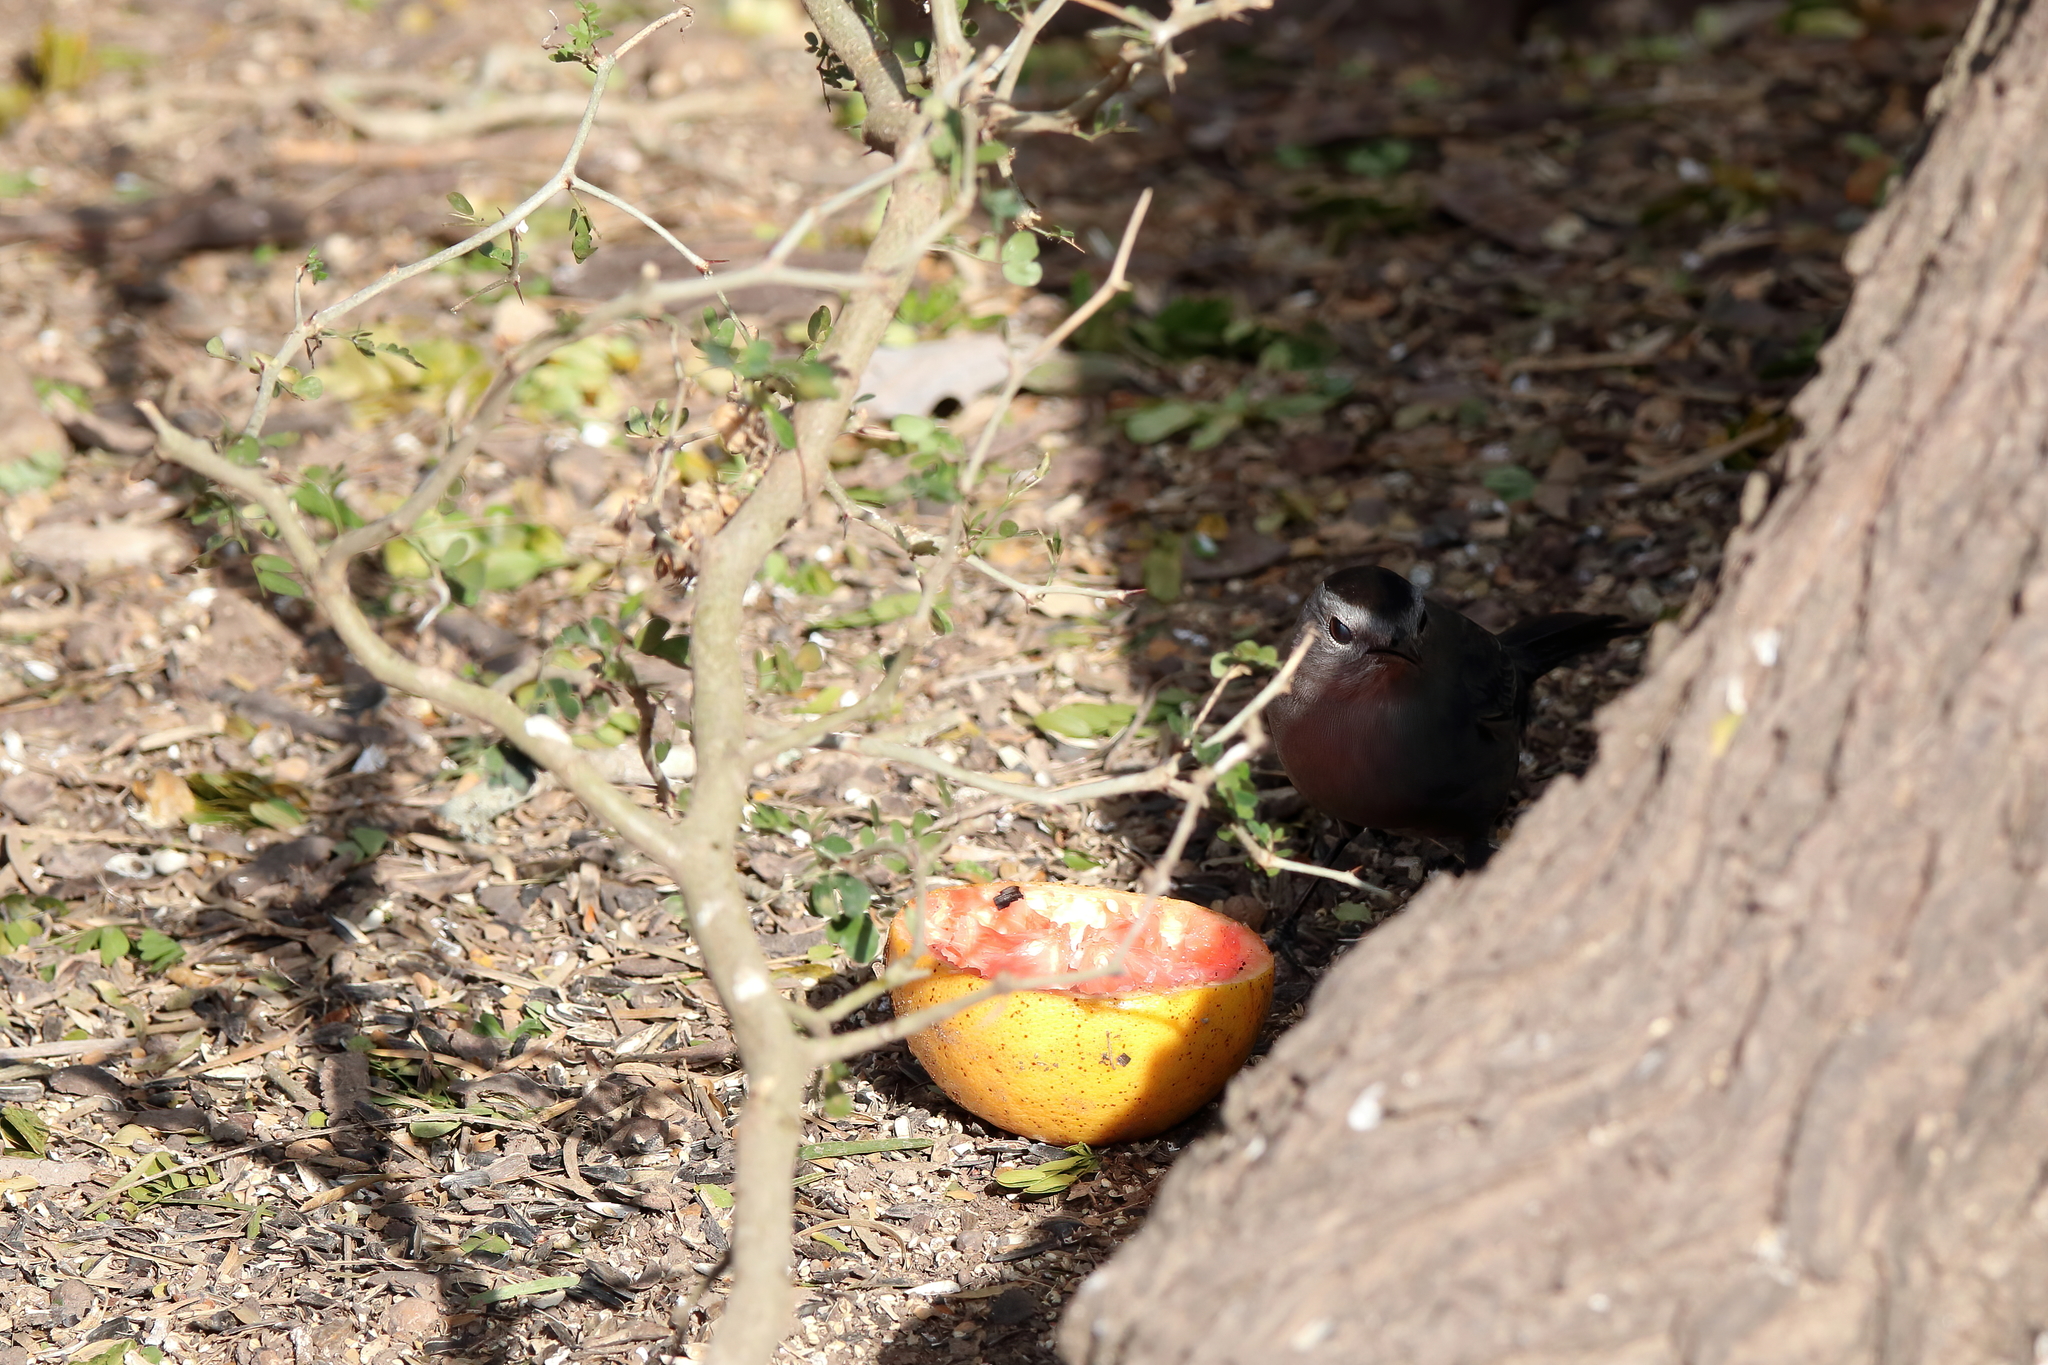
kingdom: Animalia
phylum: Chordata
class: Aves
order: Passeriformes
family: Mimidae
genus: Dumetella
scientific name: Dumetella carolinensis
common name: Gray catbird
